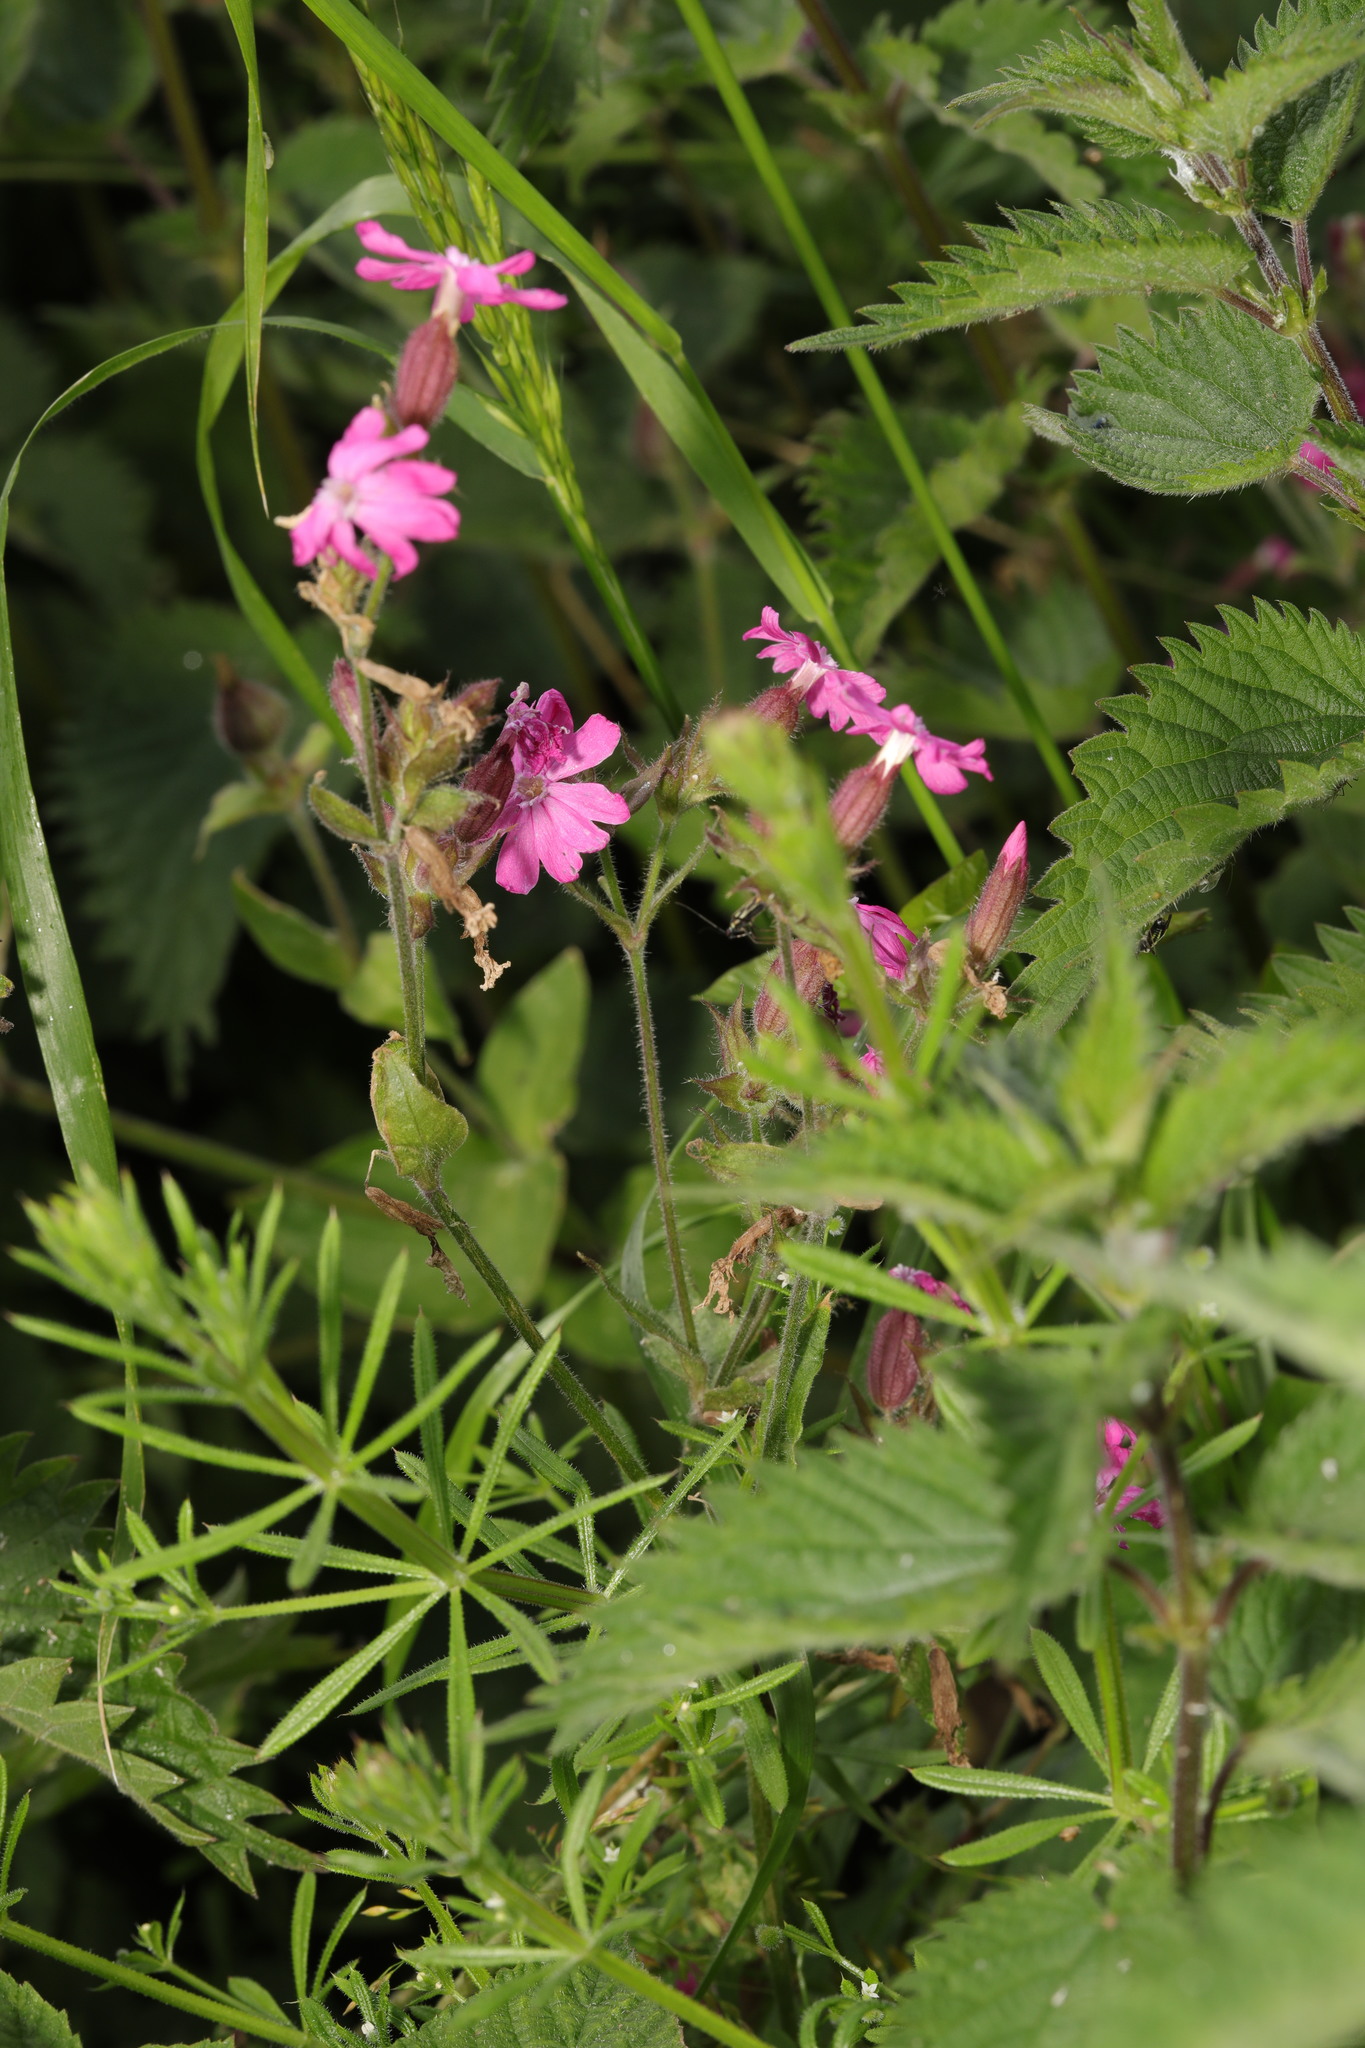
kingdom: Plantae
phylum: Tracheophyta
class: Magnoliopsida
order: Caryophyllales
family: Caryophyllaceae
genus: Silene
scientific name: Silene dioica
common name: Red campion
